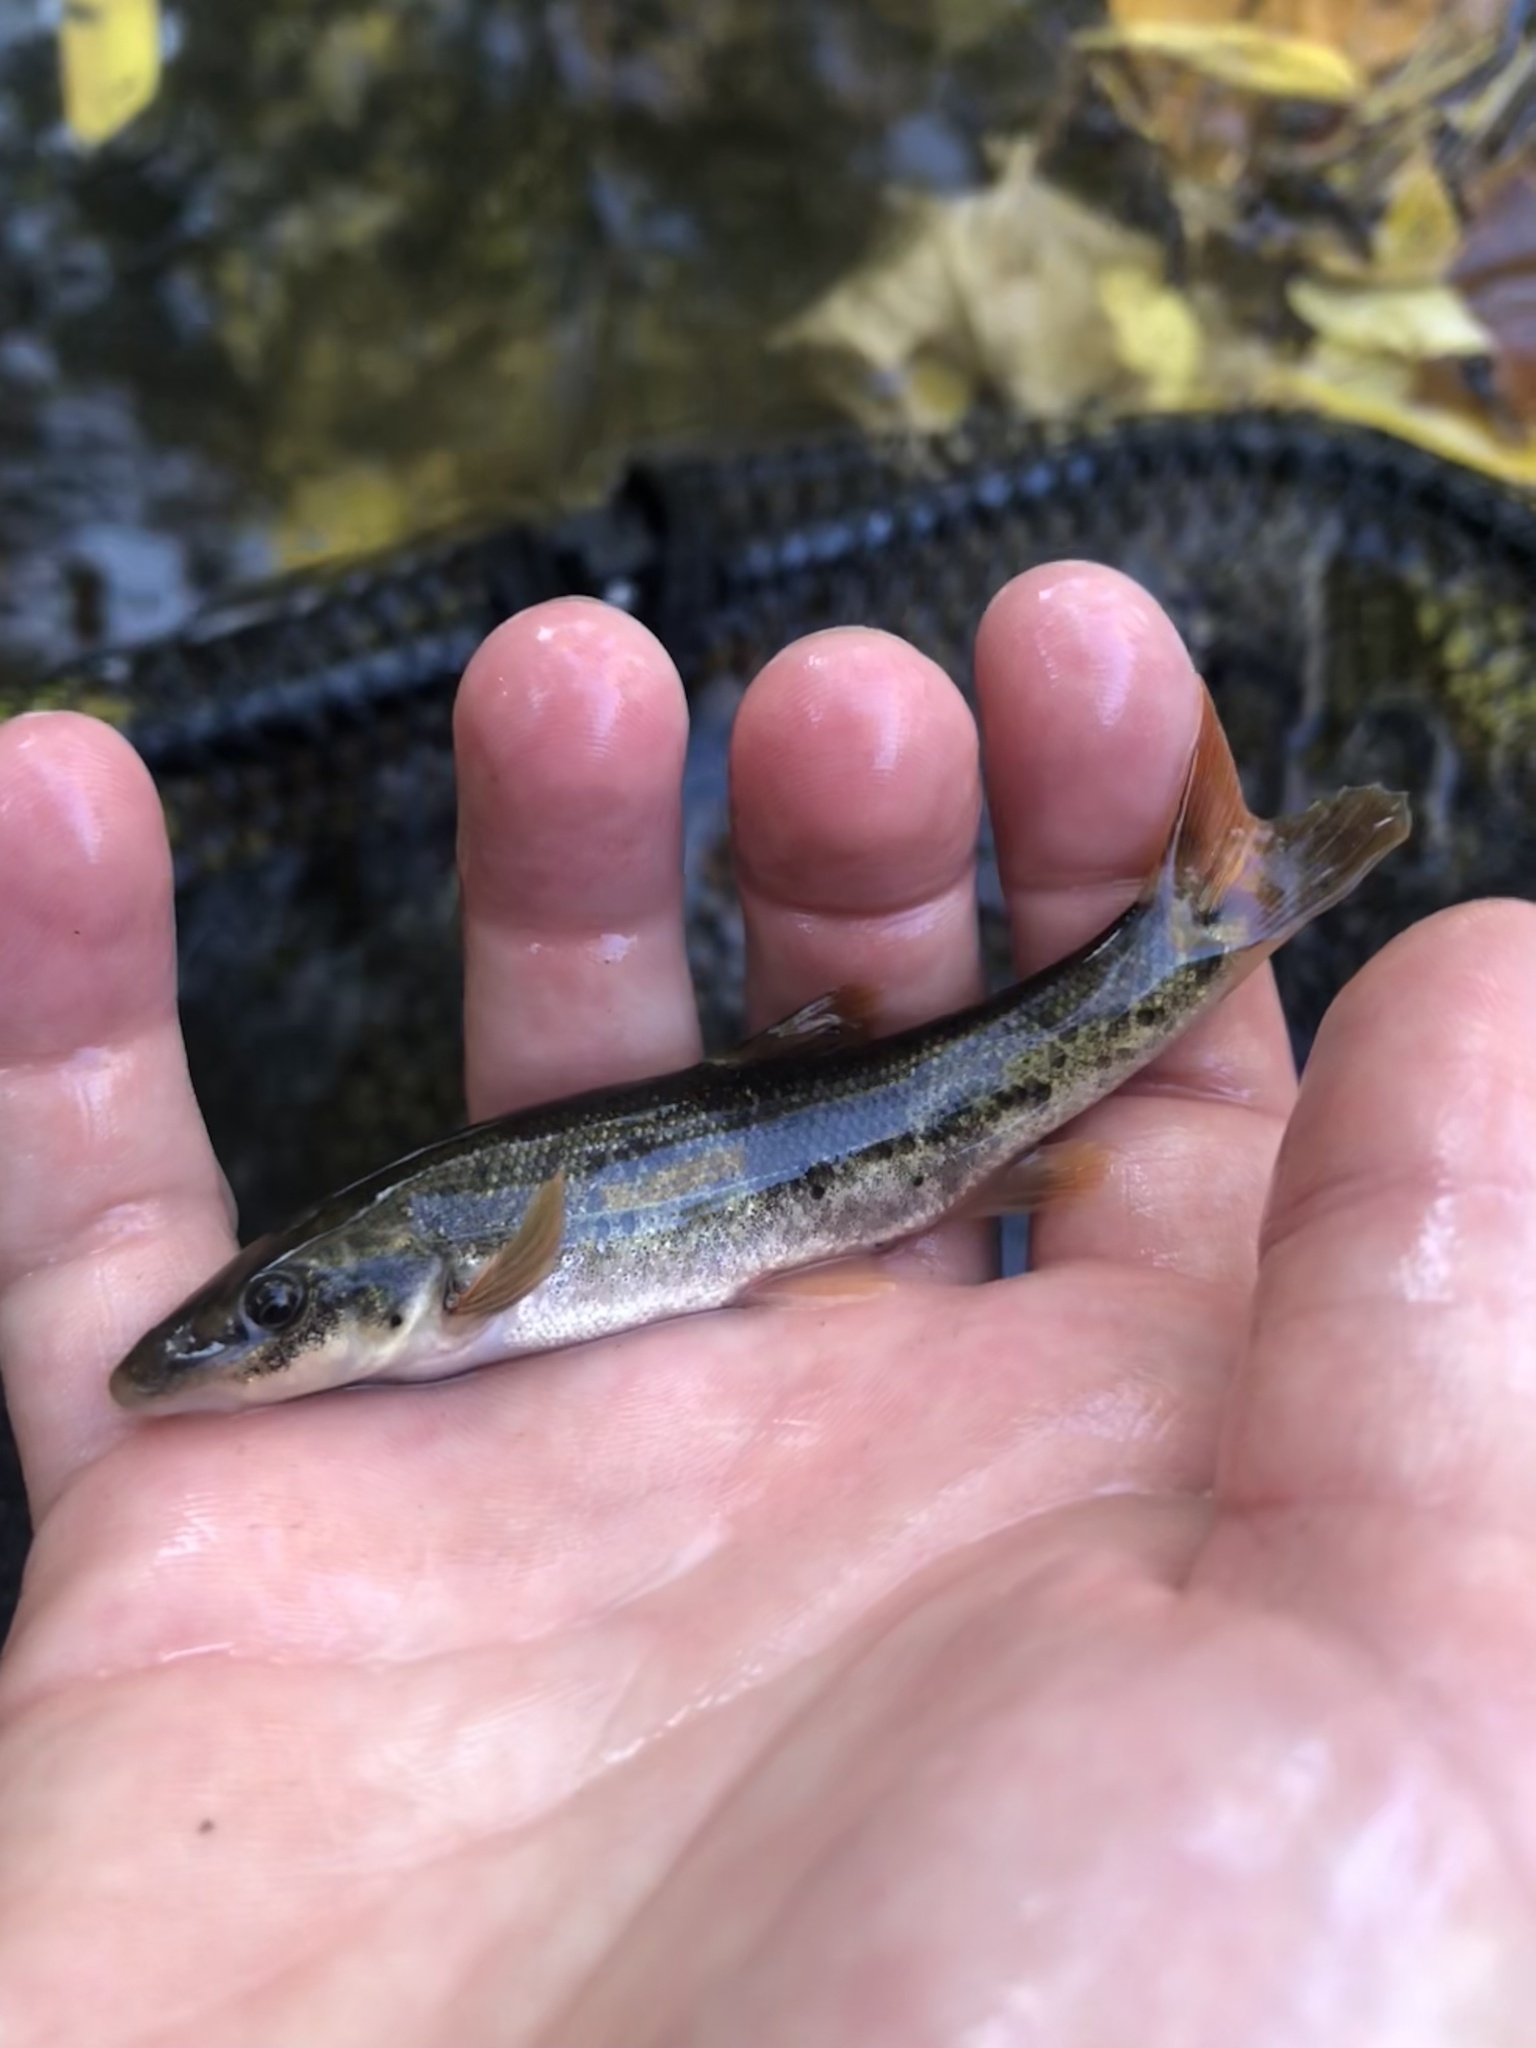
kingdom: Animalia
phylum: Platyhelminthes
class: Trematoda
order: Diplostomida
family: Diplostomidae
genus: Neascus
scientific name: Neascus
